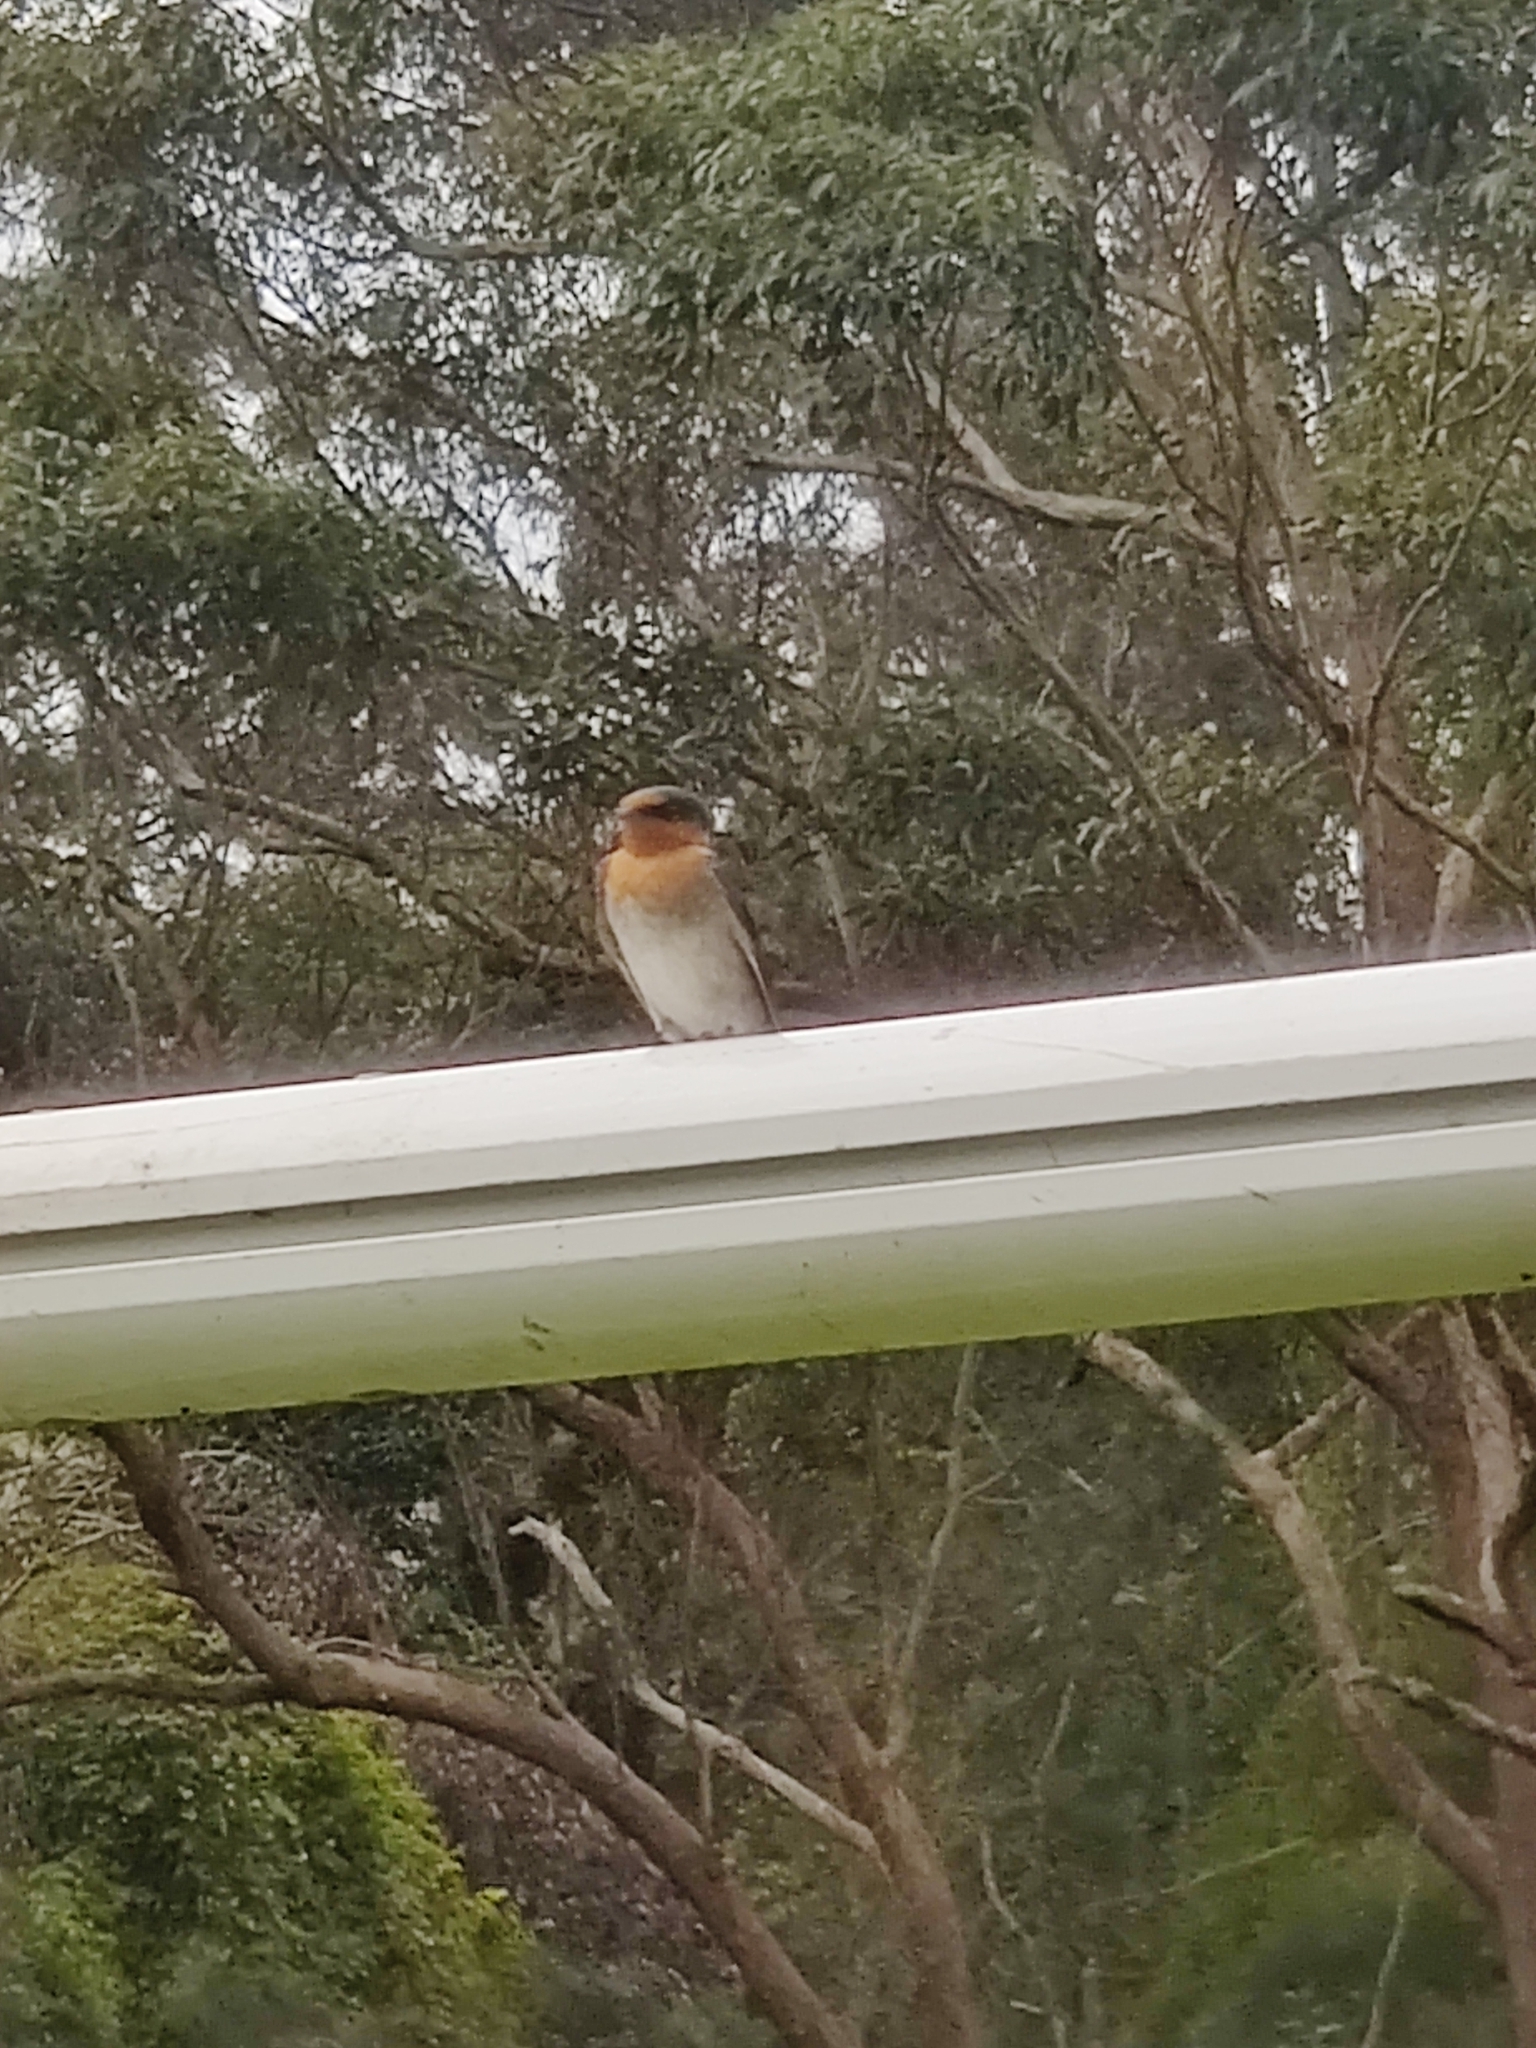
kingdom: Animalia
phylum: Chordata
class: Aves
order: Passeriformes
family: Hirundinidae
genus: Hirundo
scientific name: Hirundo neoxena
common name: Welcome swallow
